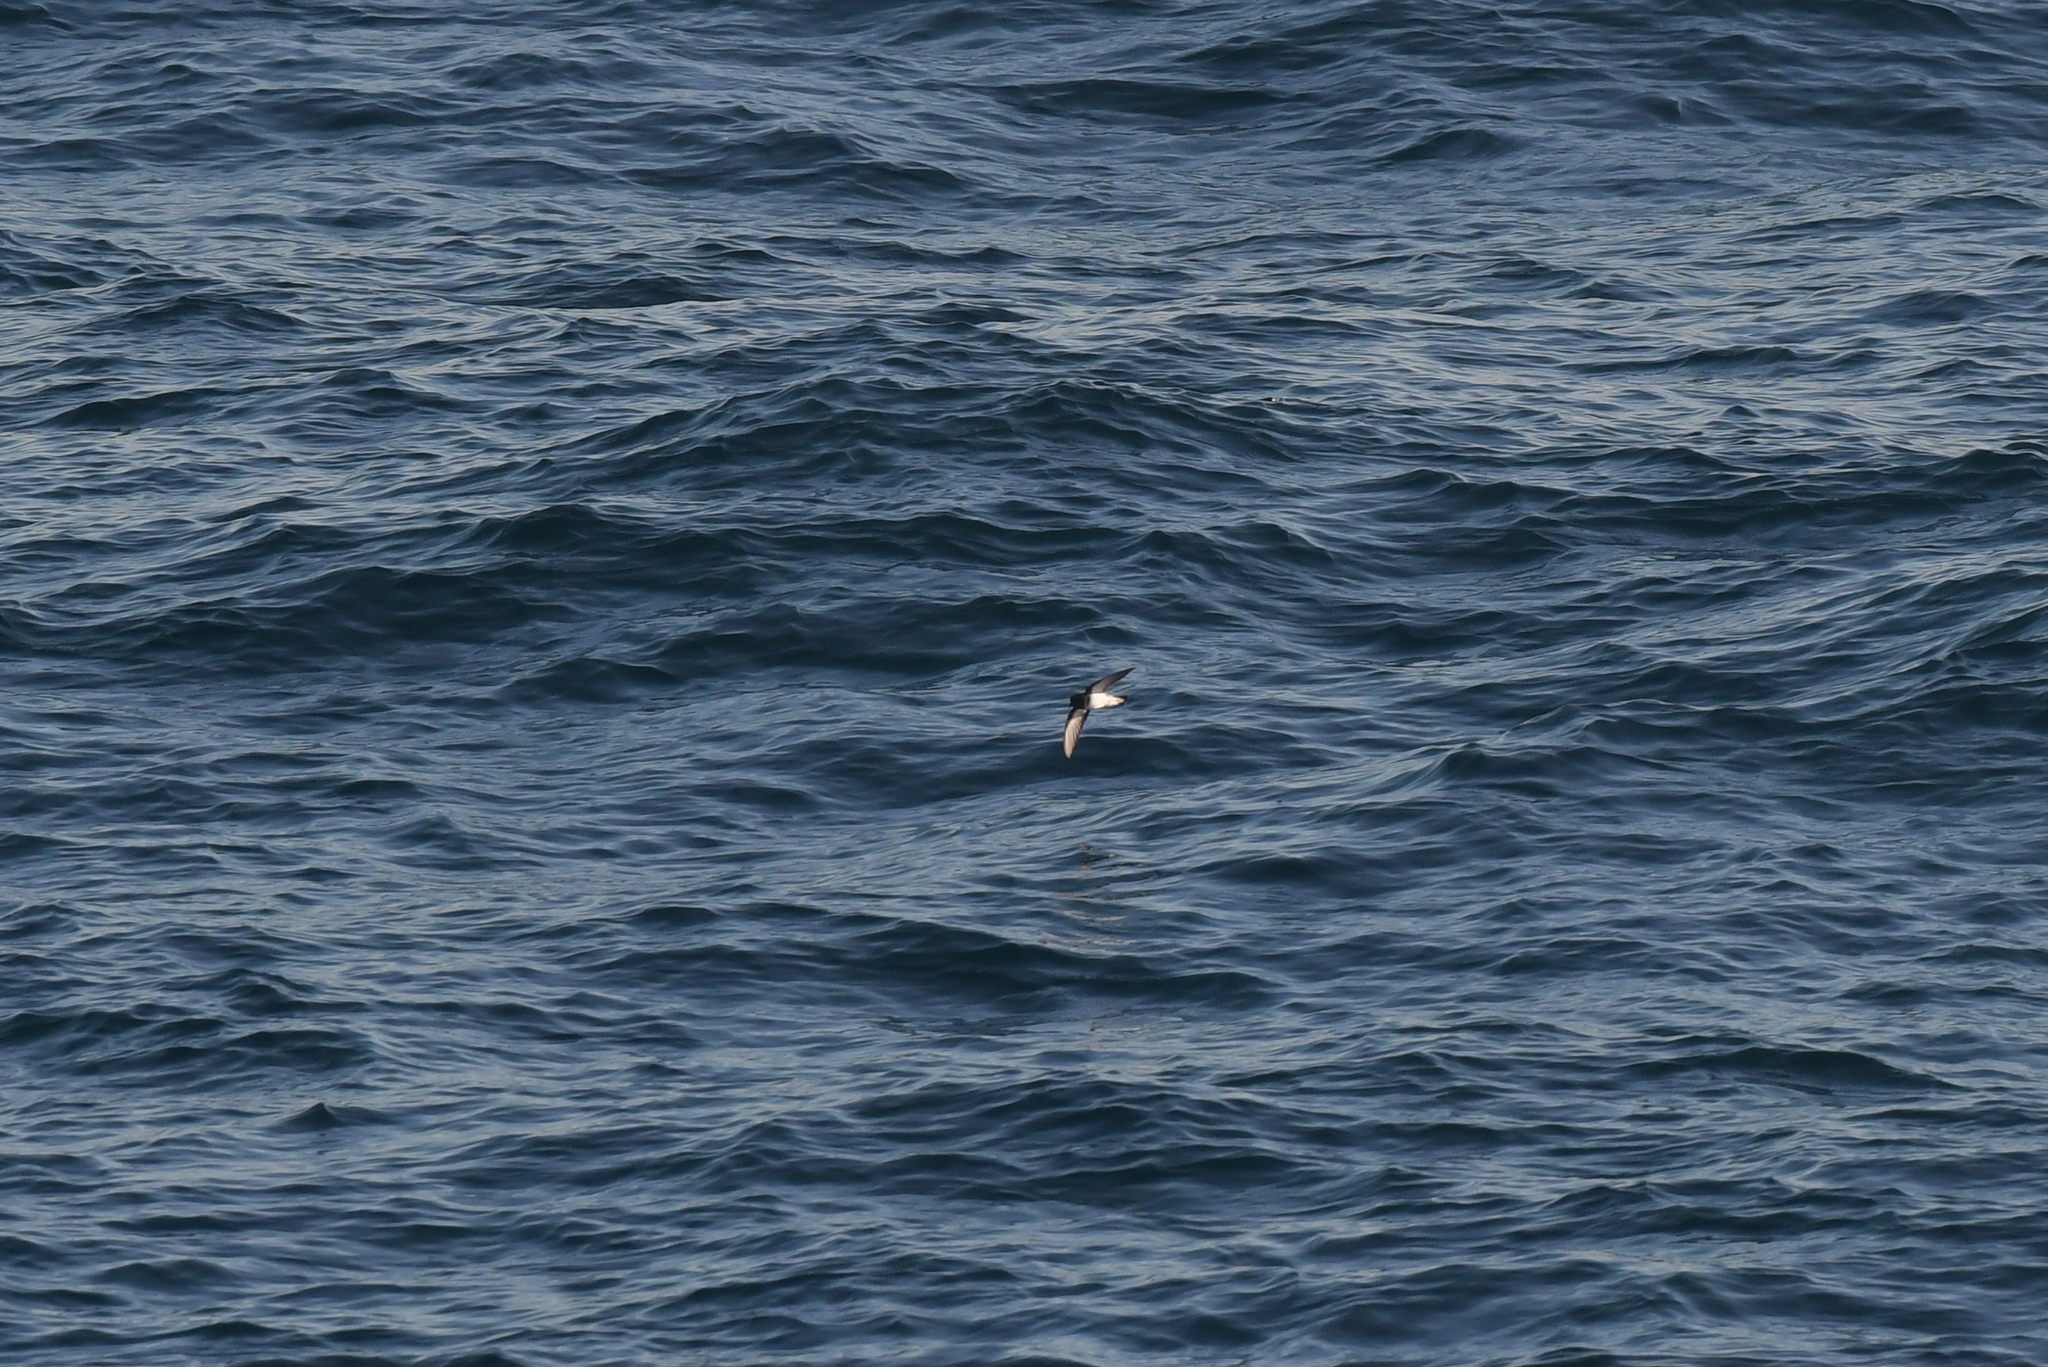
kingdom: Animalia
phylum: Chordata
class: Aves
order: Procellariiformes
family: Hydrobatidae
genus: Garrodia
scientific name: Garrodia nereis
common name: Grey-backed storm petrel
